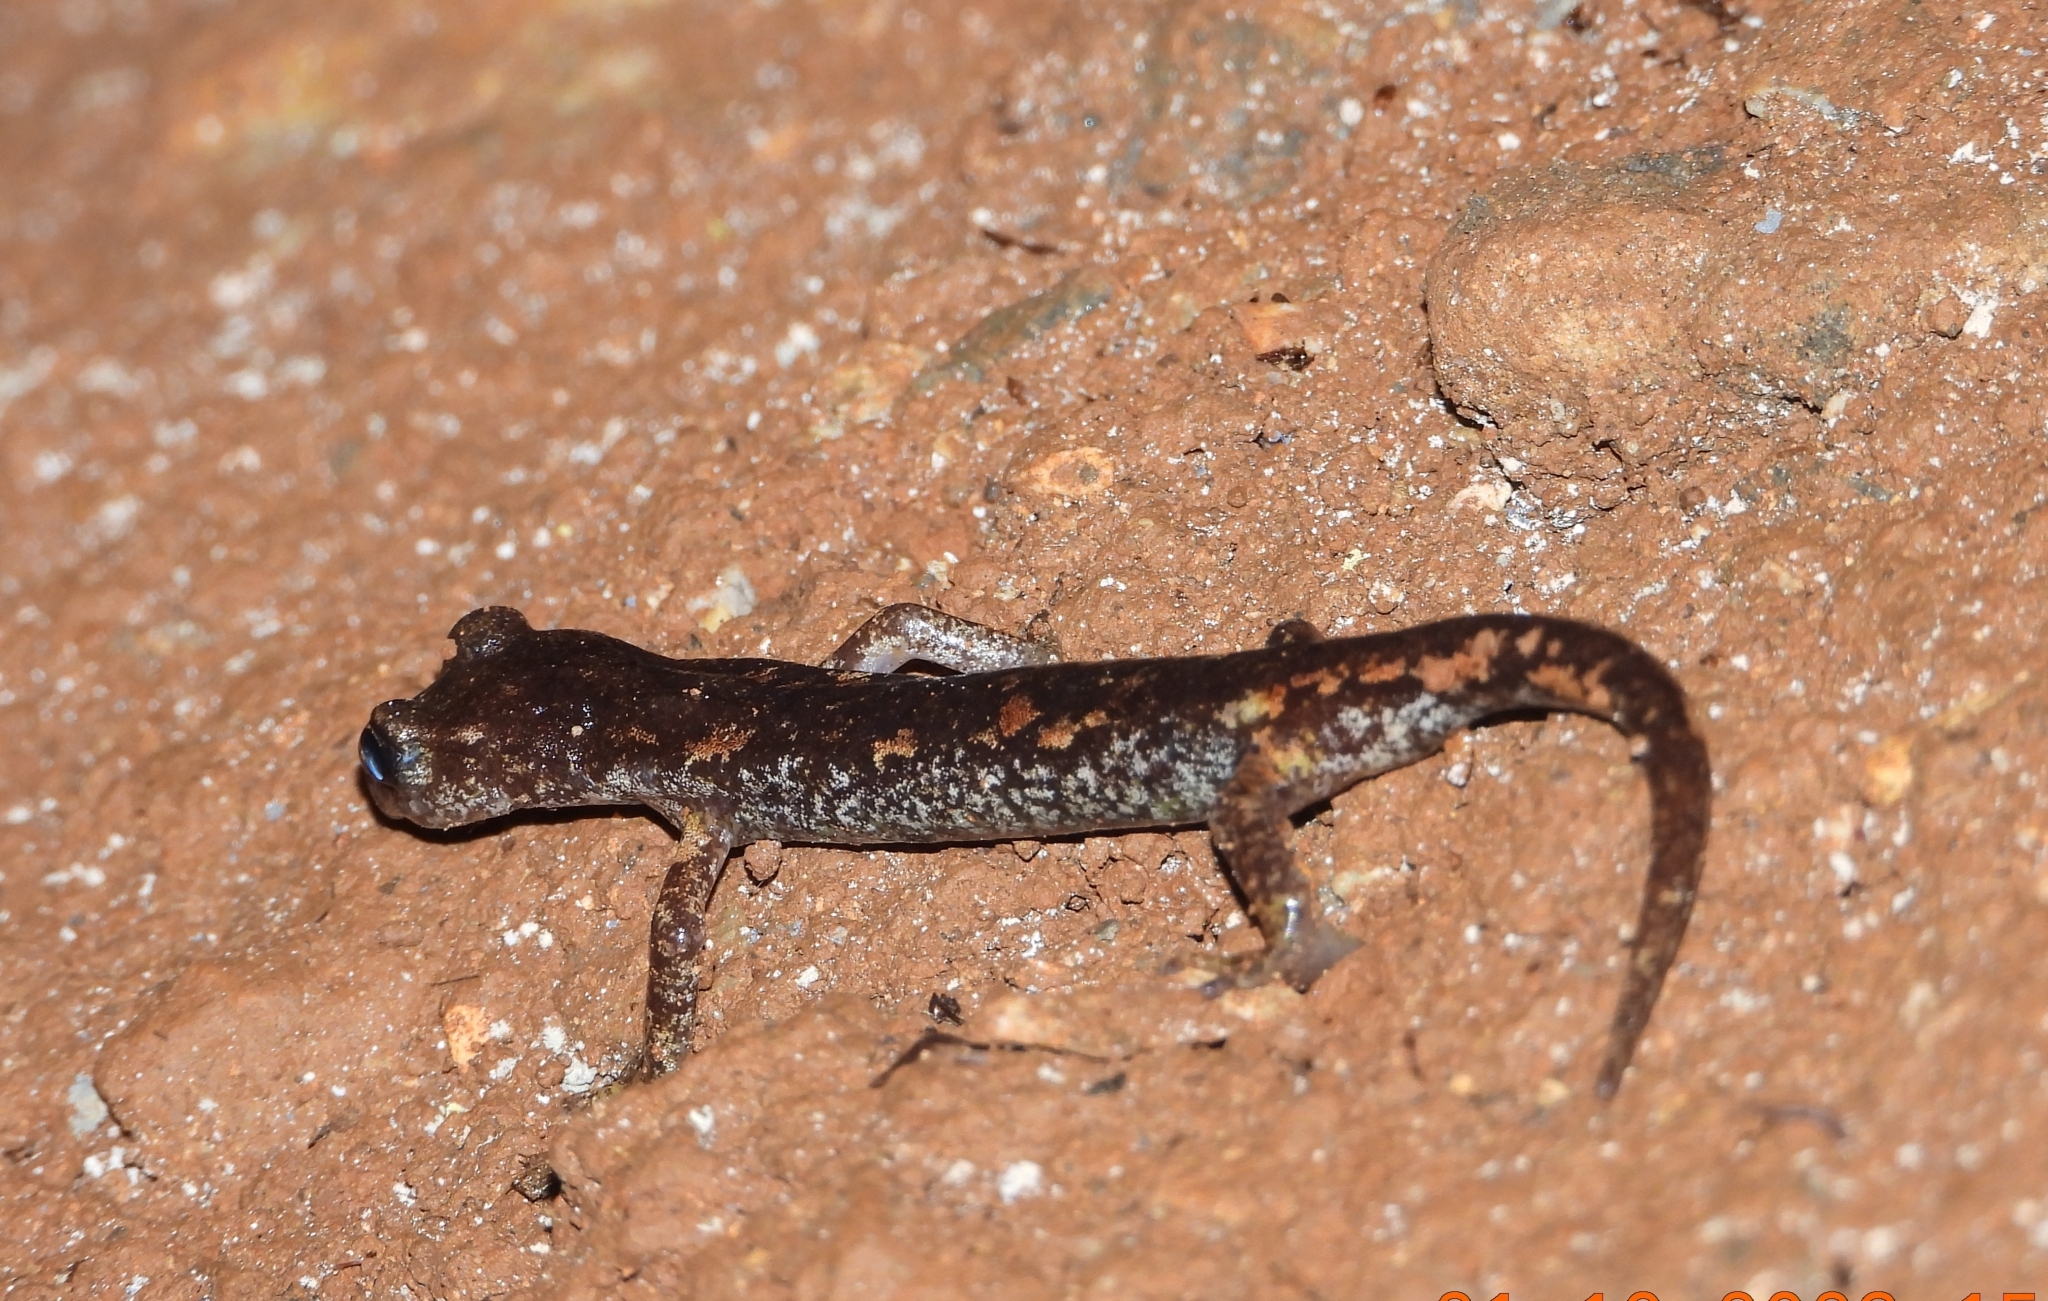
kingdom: Animalia
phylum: Chordata
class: Amphibia
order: Caudata
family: Plethodontidae
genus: Speleomantes
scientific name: Speleomantes ambrosii
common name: Ambrosi's cave salamander
